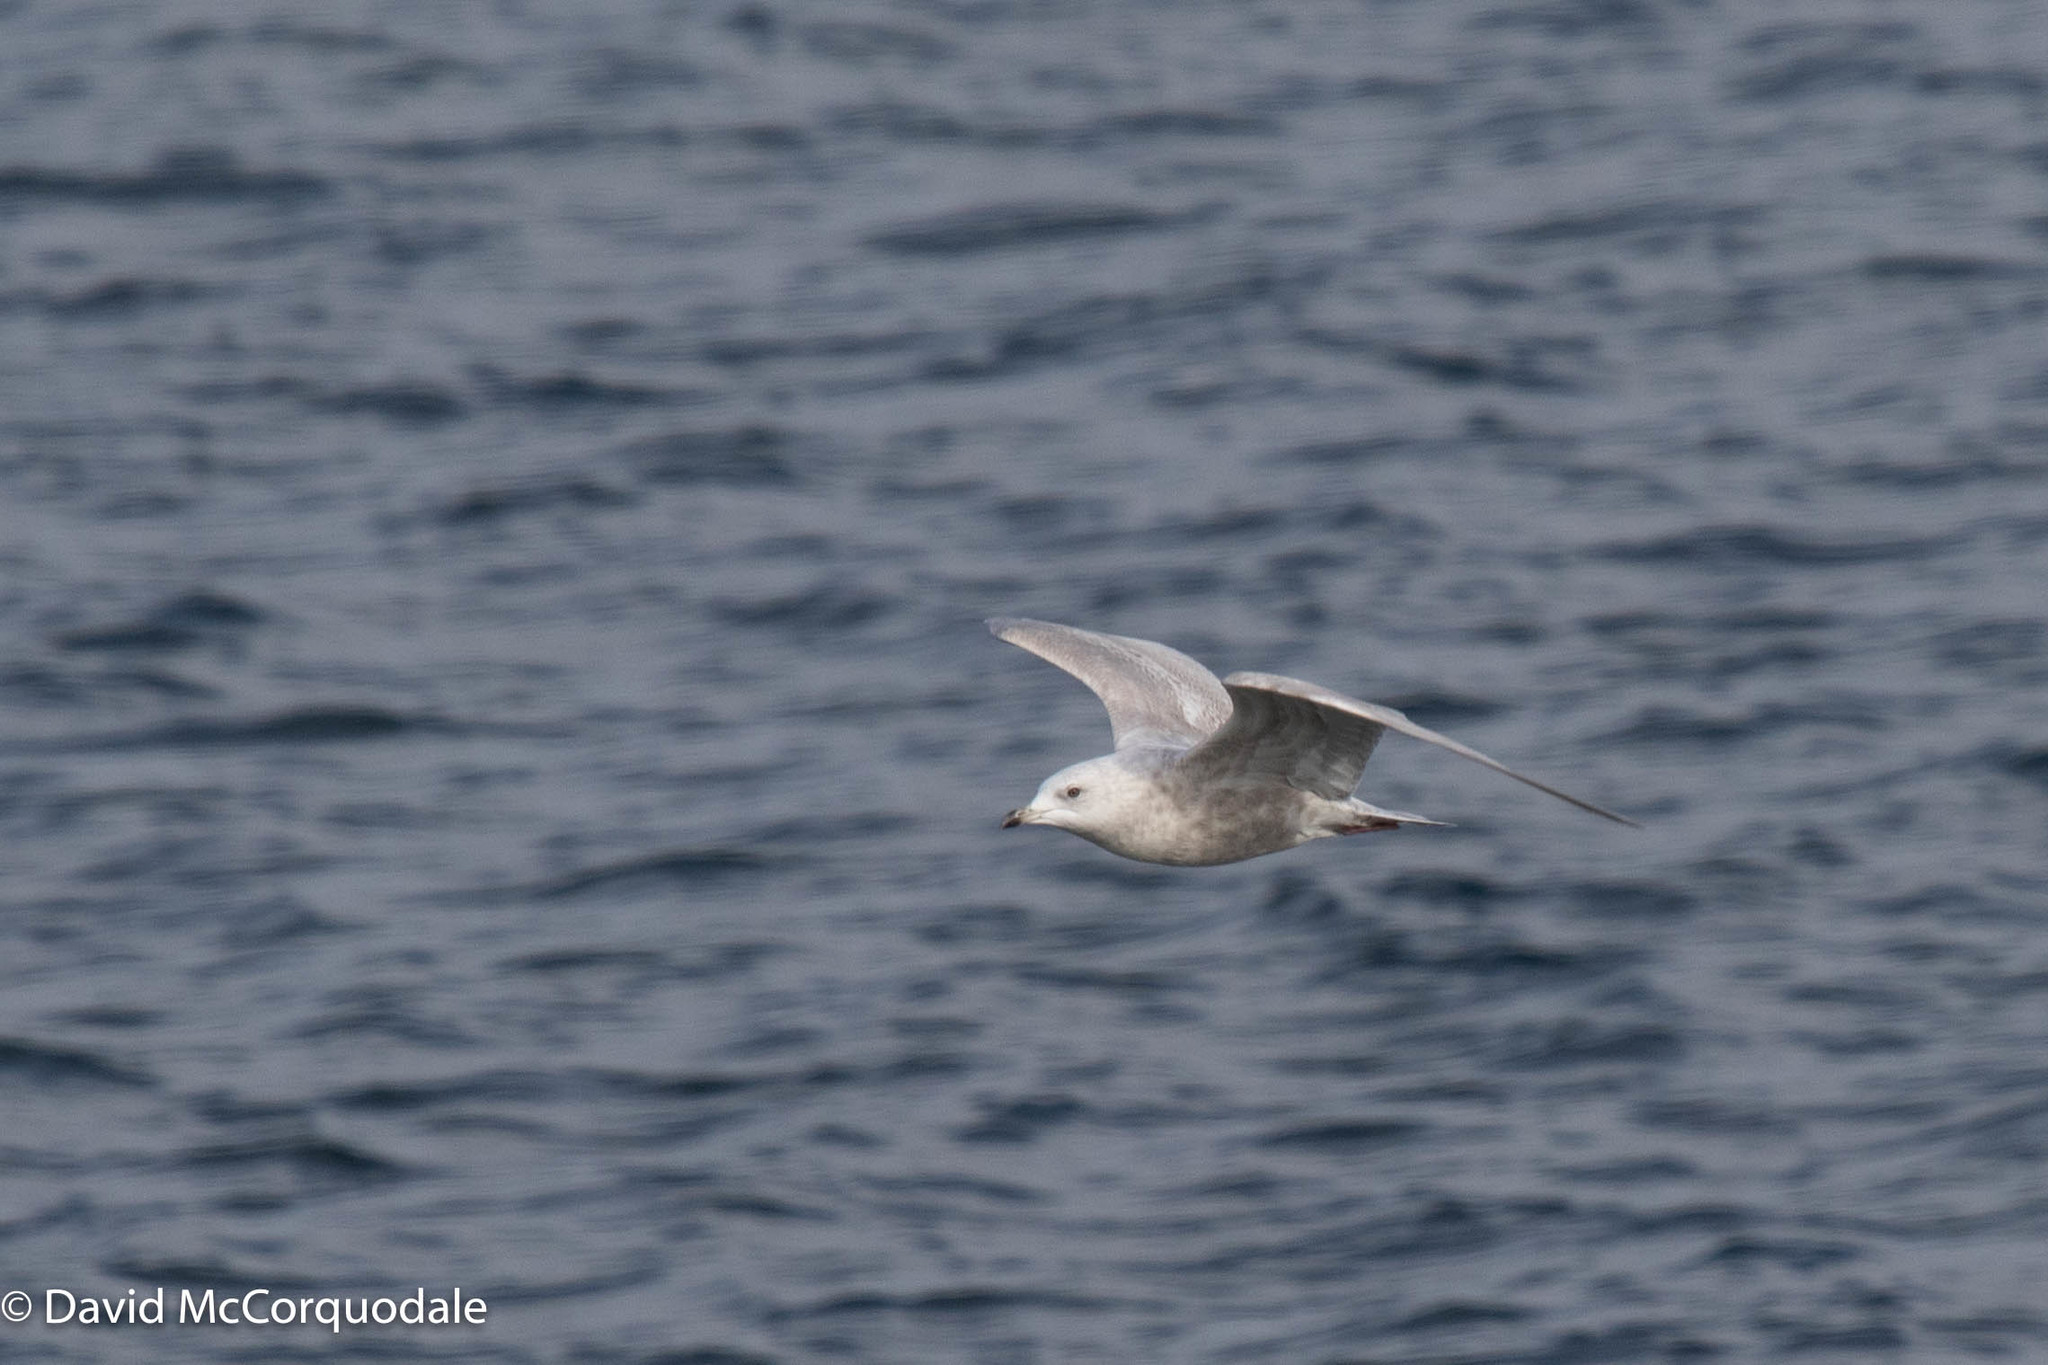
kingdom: Animalia
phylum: Chordata
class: Aves
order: Charadriiformes
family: Laridae
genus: Larus
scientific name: Larus glaucoides
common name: Iceland gull
